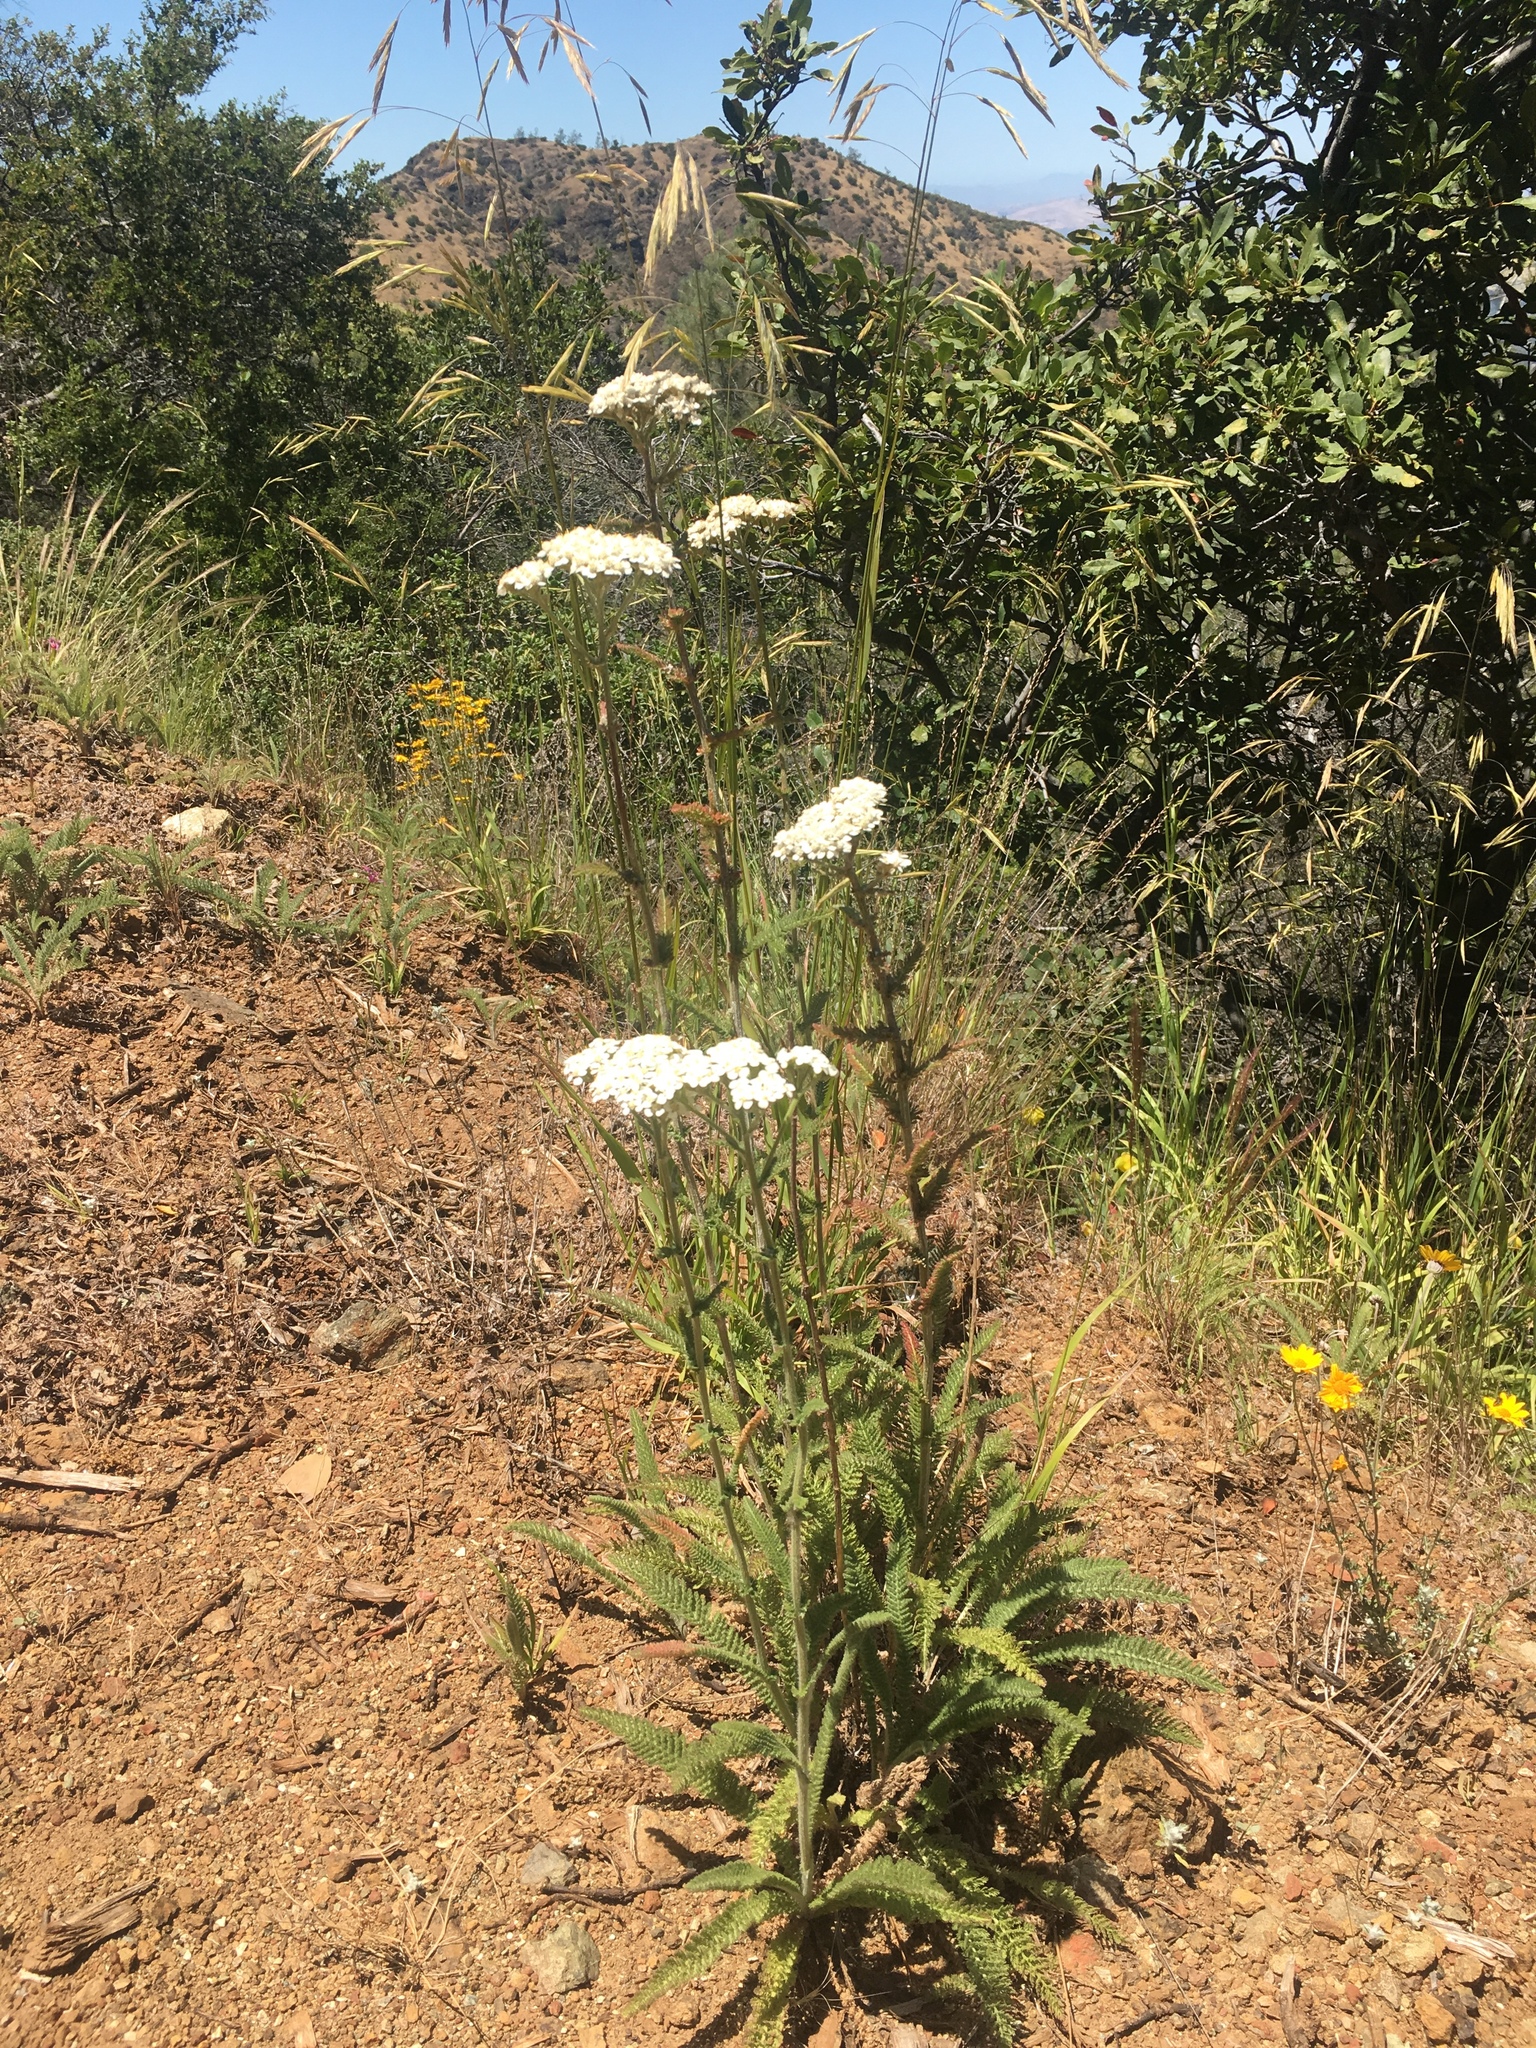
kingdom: Plantae
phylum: Tracheophyta
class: Magnoliopsida
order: Asterales
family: Asteraceae
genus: Achillea
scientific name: Achillea millefolium
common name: Yarrow
